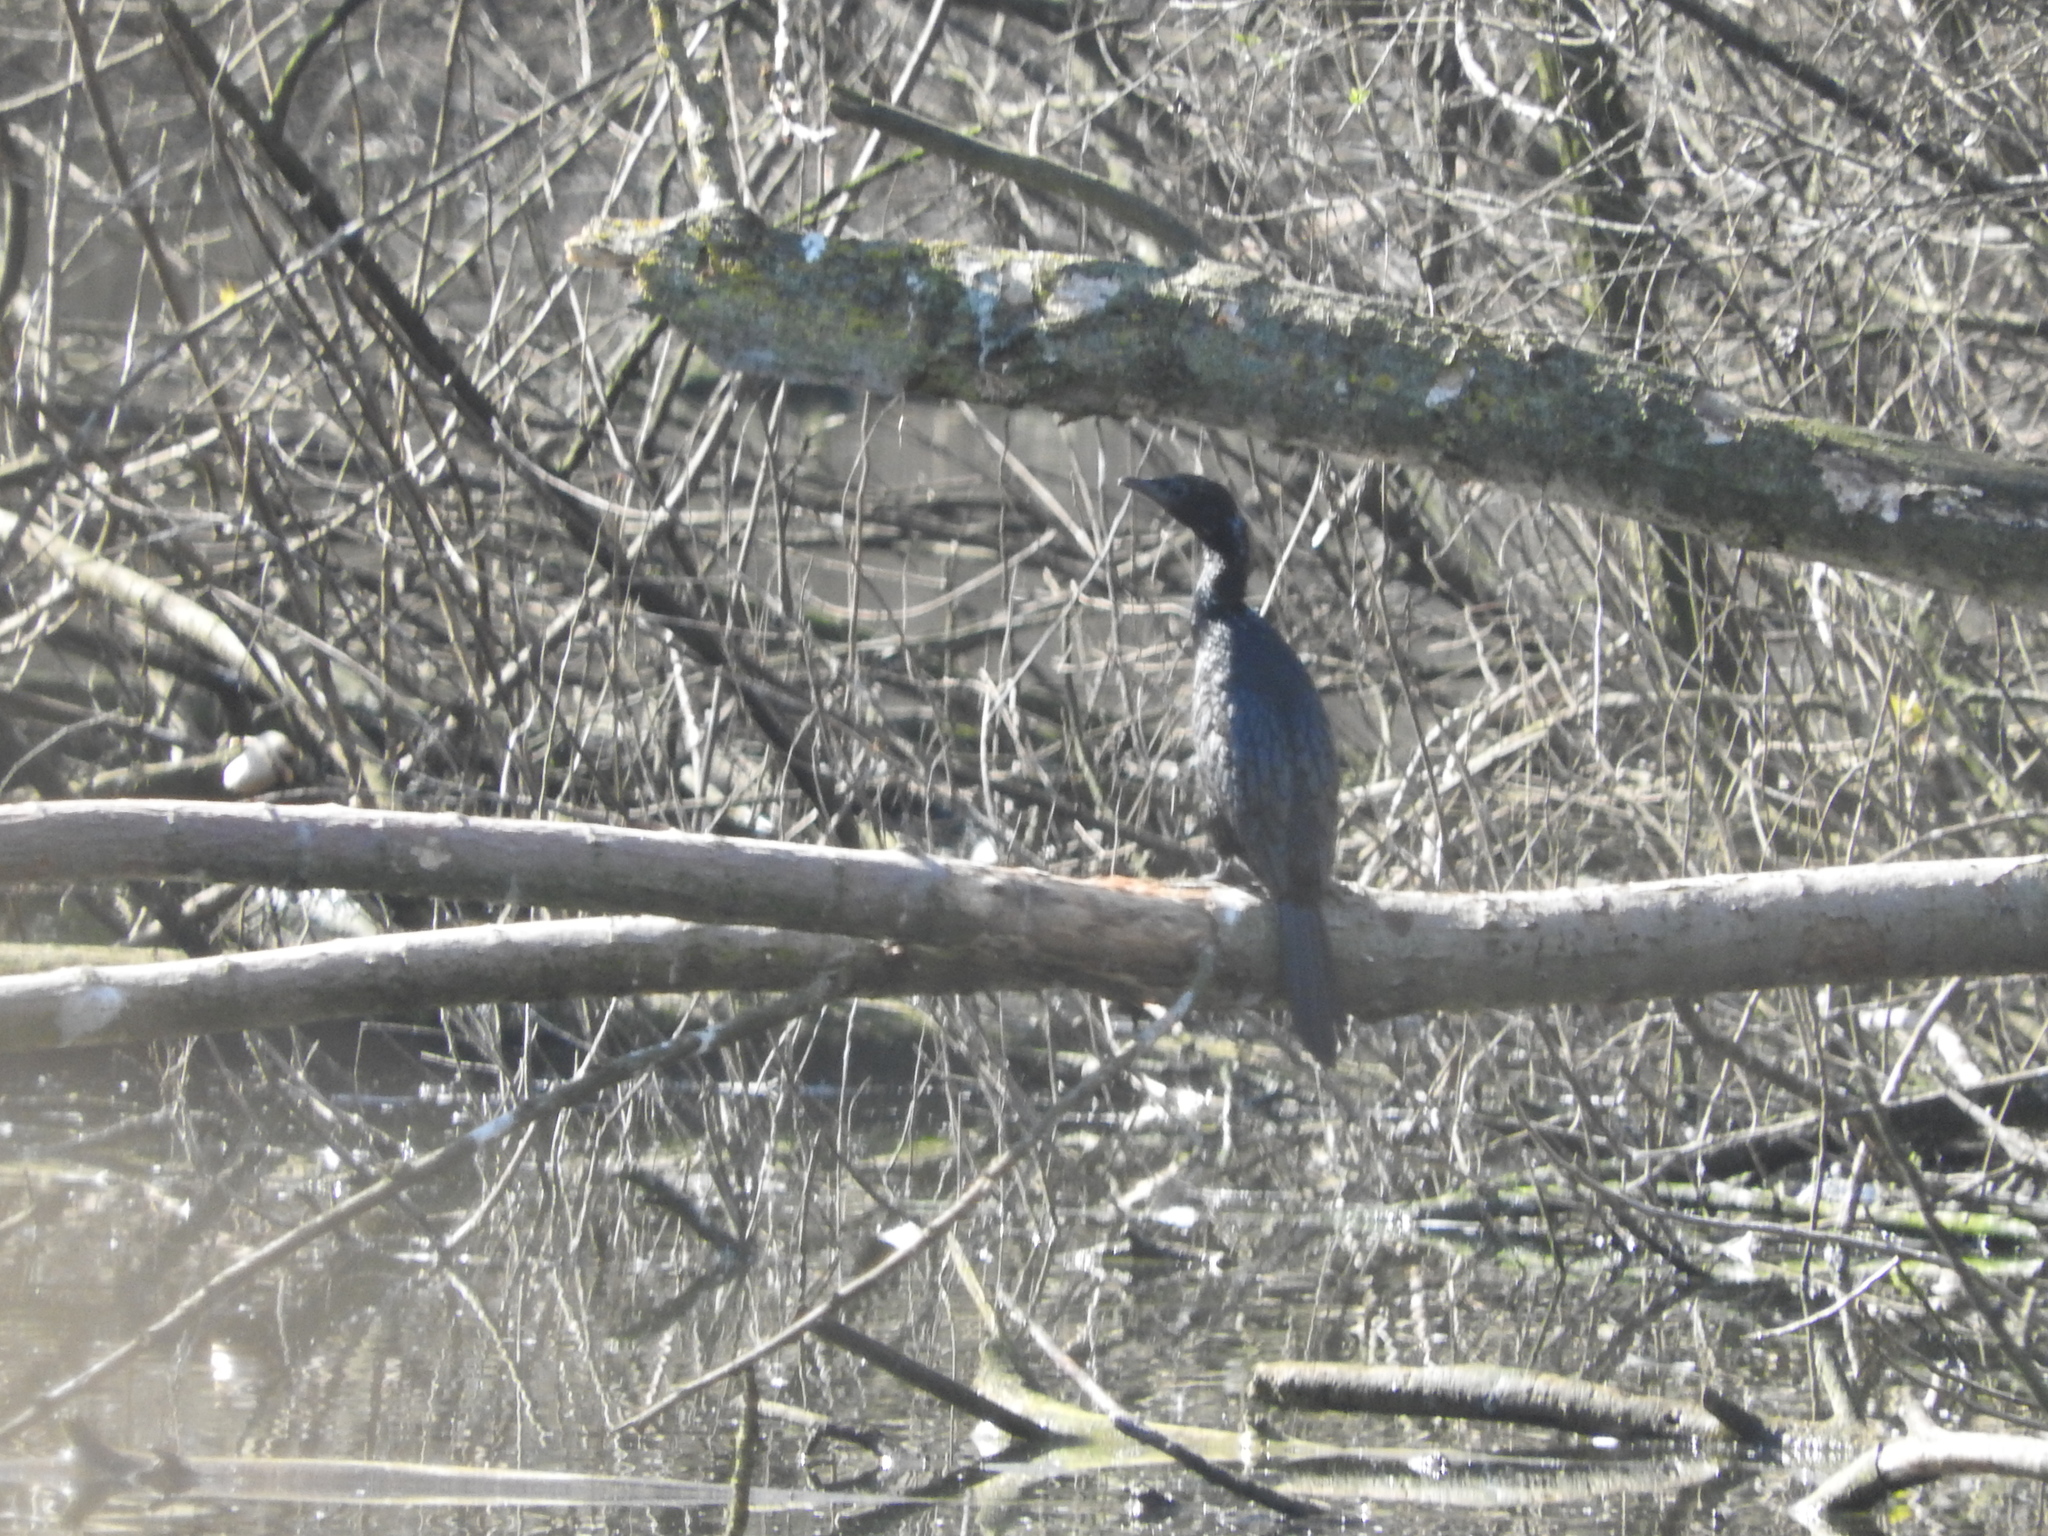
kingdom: Animalia
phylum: Chordata
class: Aves
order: Suliformes
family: Phalacrocoracidae
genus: Microcarbo
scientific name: Microcarbo pygmaeus
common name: Pygmy cormorant
